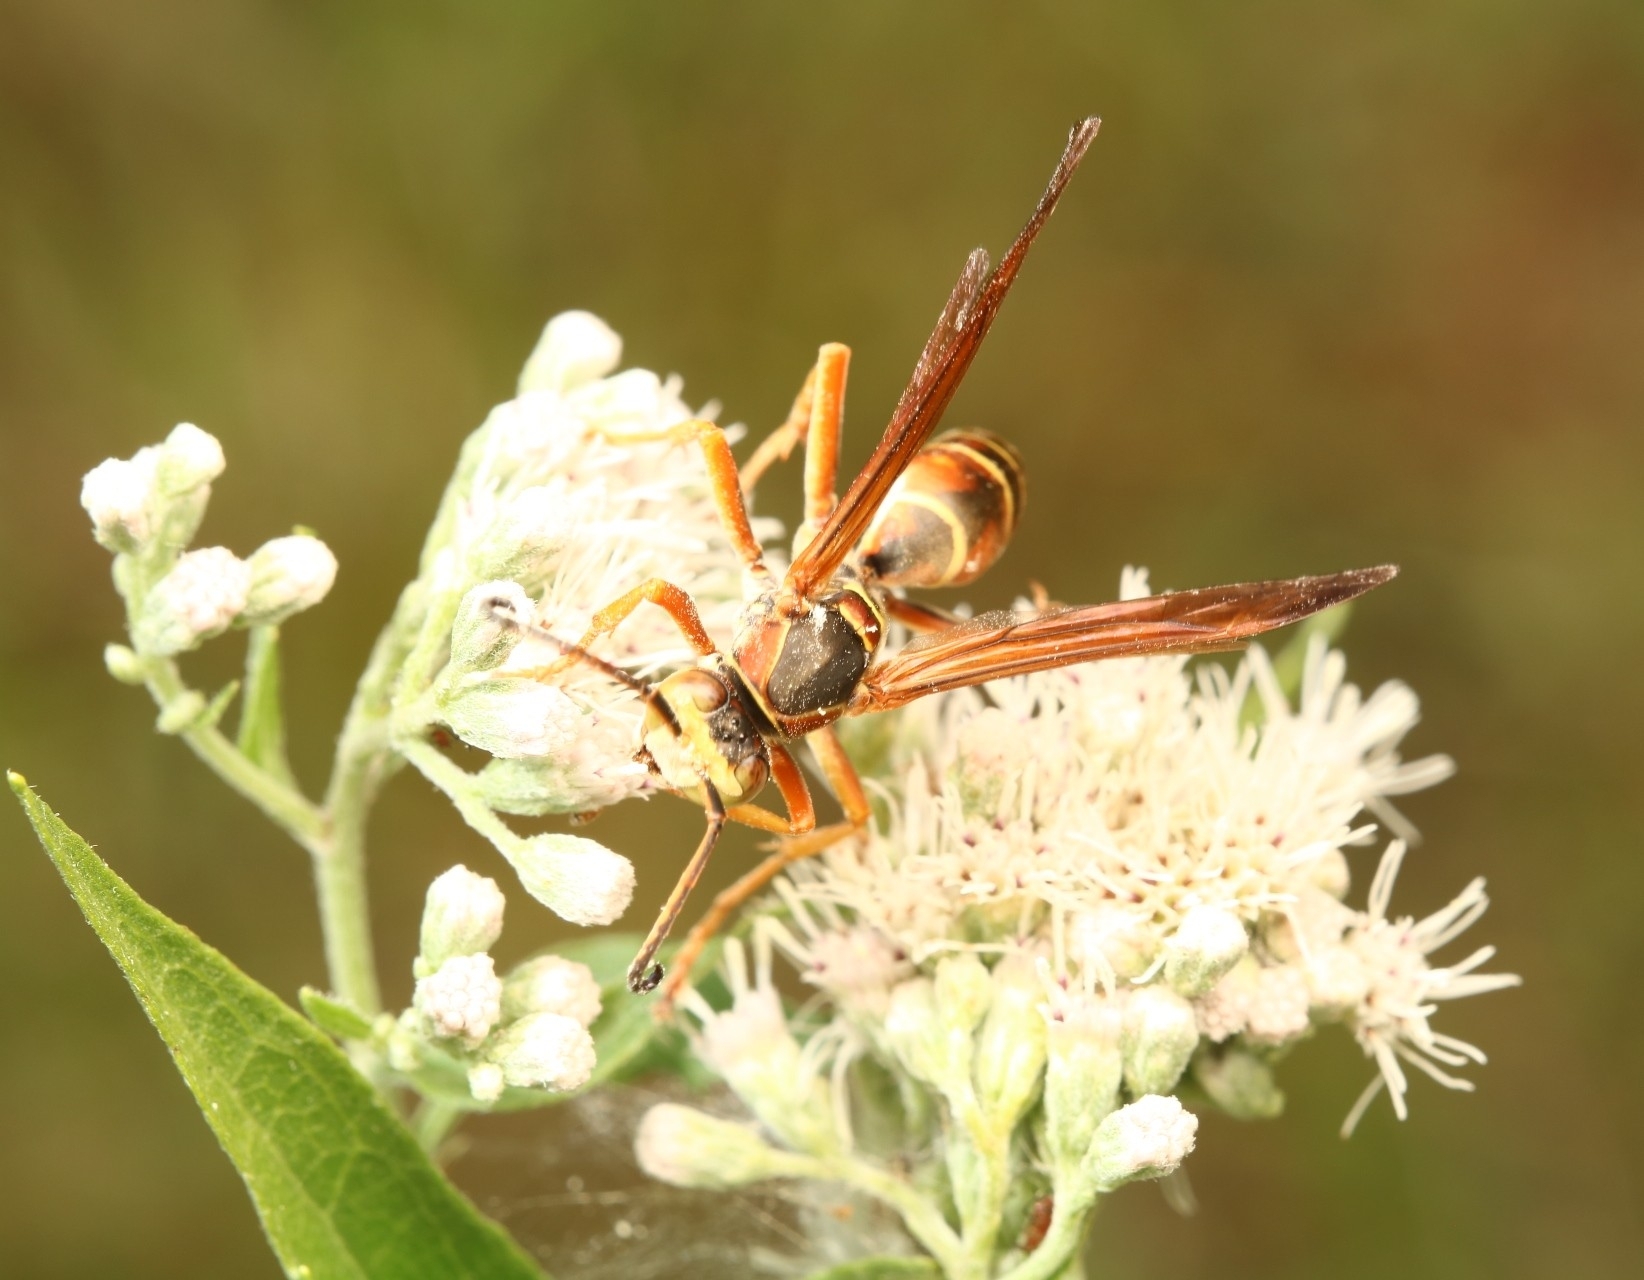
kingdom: Animalia
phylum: Arthropoda
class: Insecta
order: Hymenoptera
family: Eumenidae
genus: Polistes
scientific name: Polistes fuscatus
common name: Dark paper wasp
